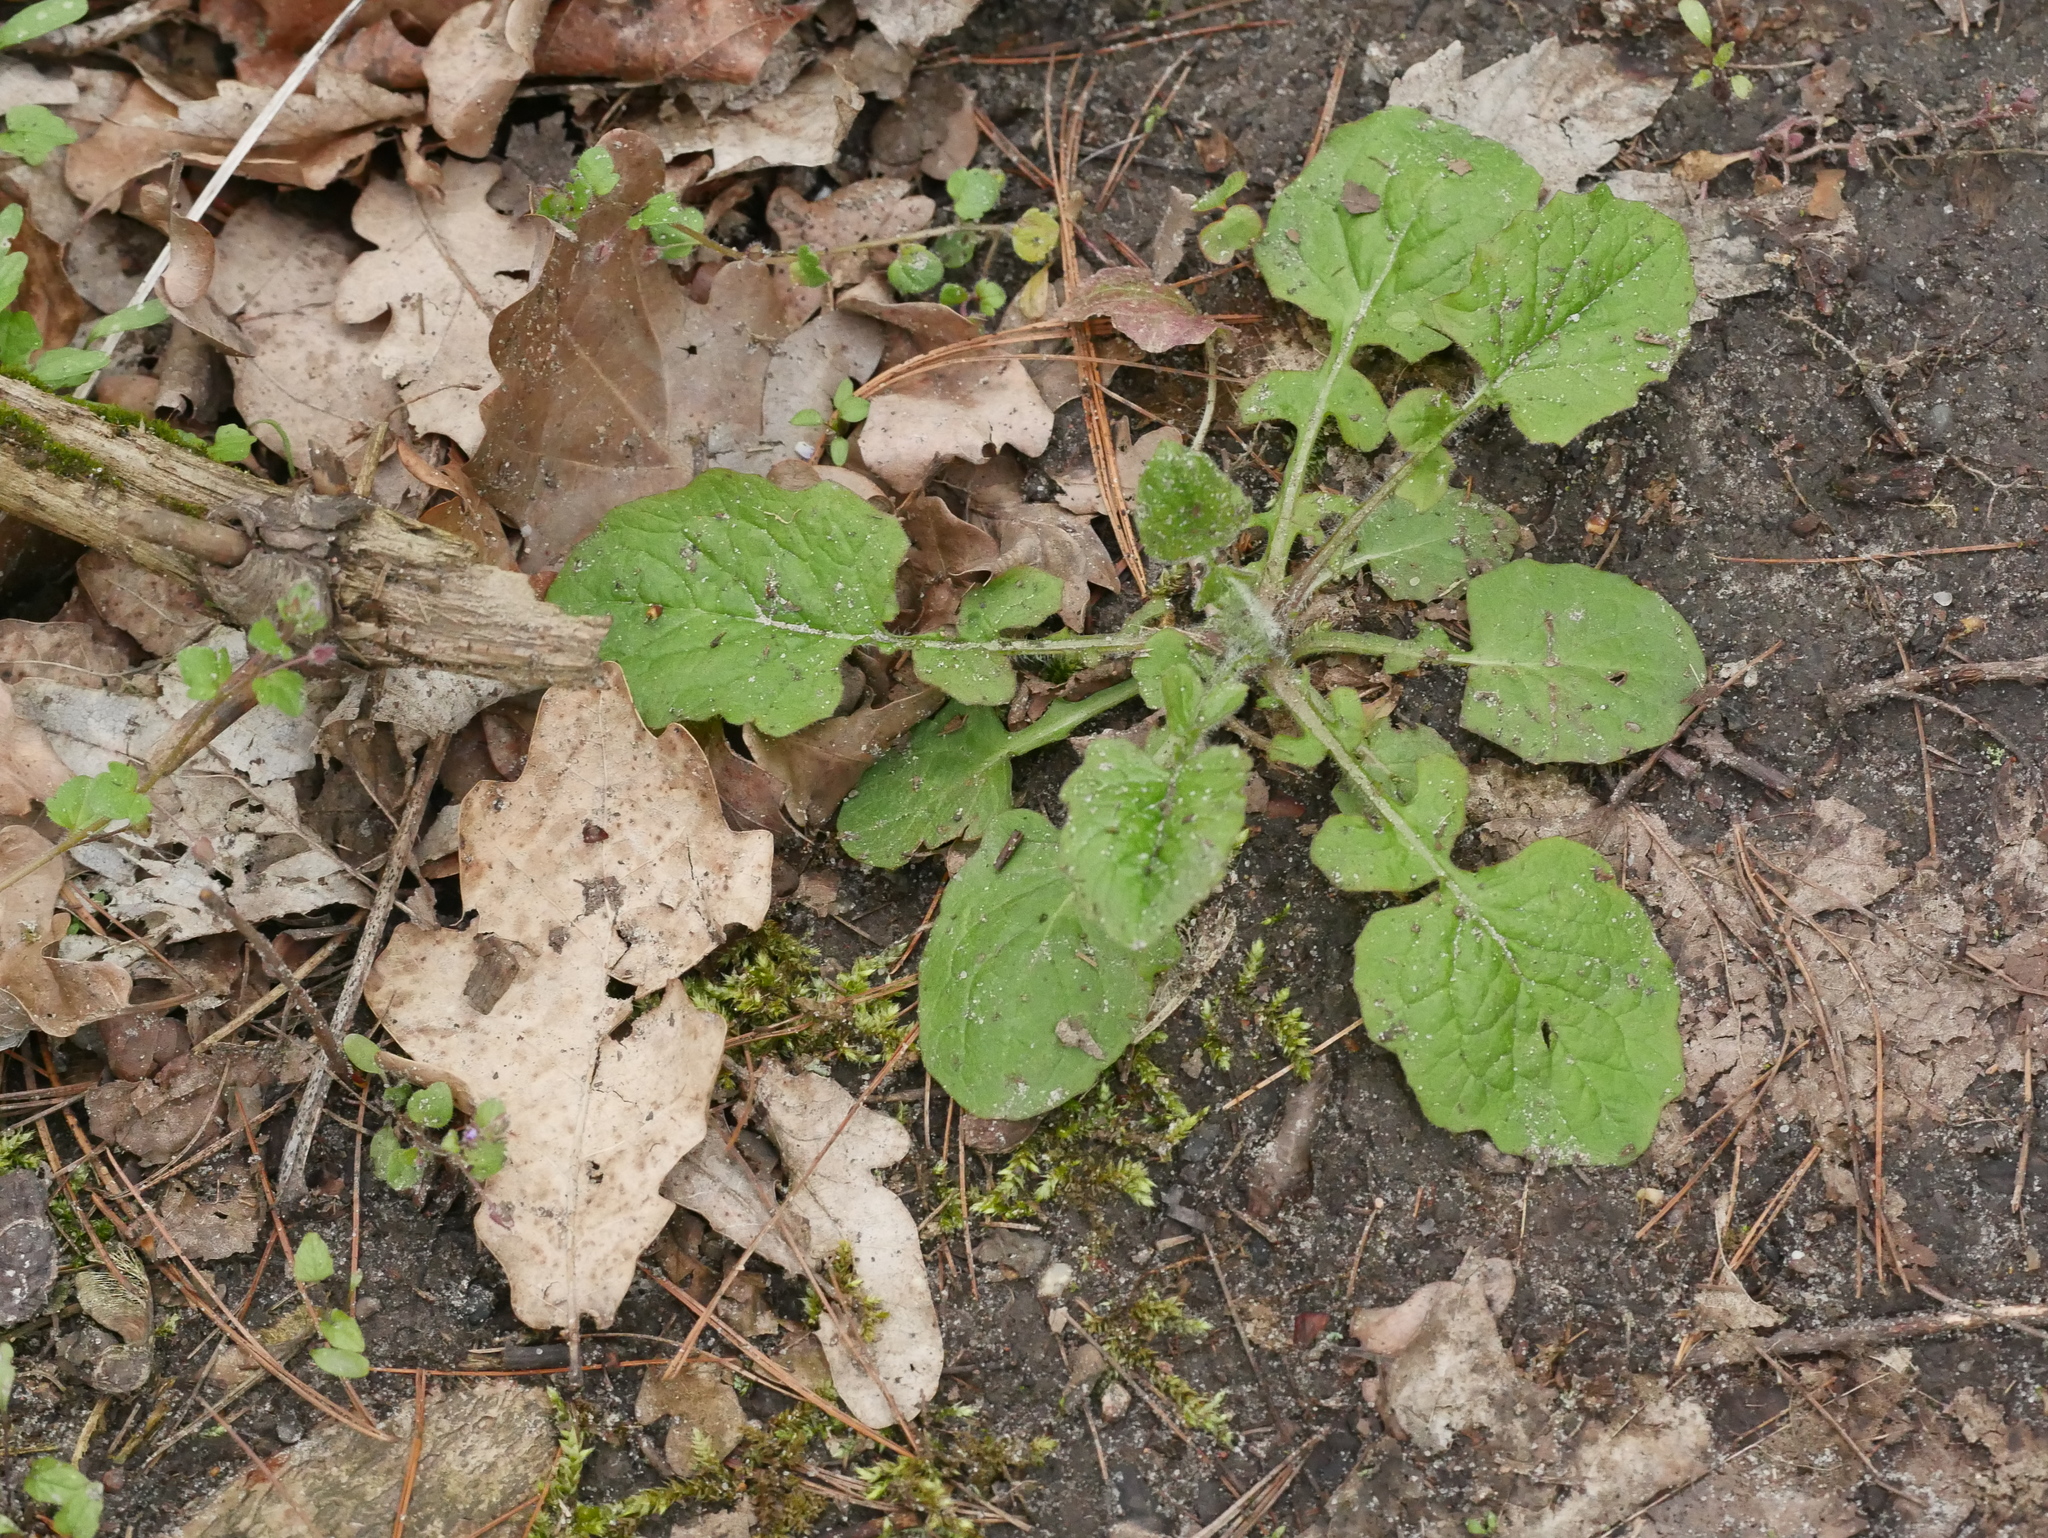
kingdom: Plantae
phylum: Tracheophyta
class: Magnoliopsida
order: Asterales
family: Asteraceae
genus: Lapsana
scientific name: Lapsana communis
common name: Nipplewort
